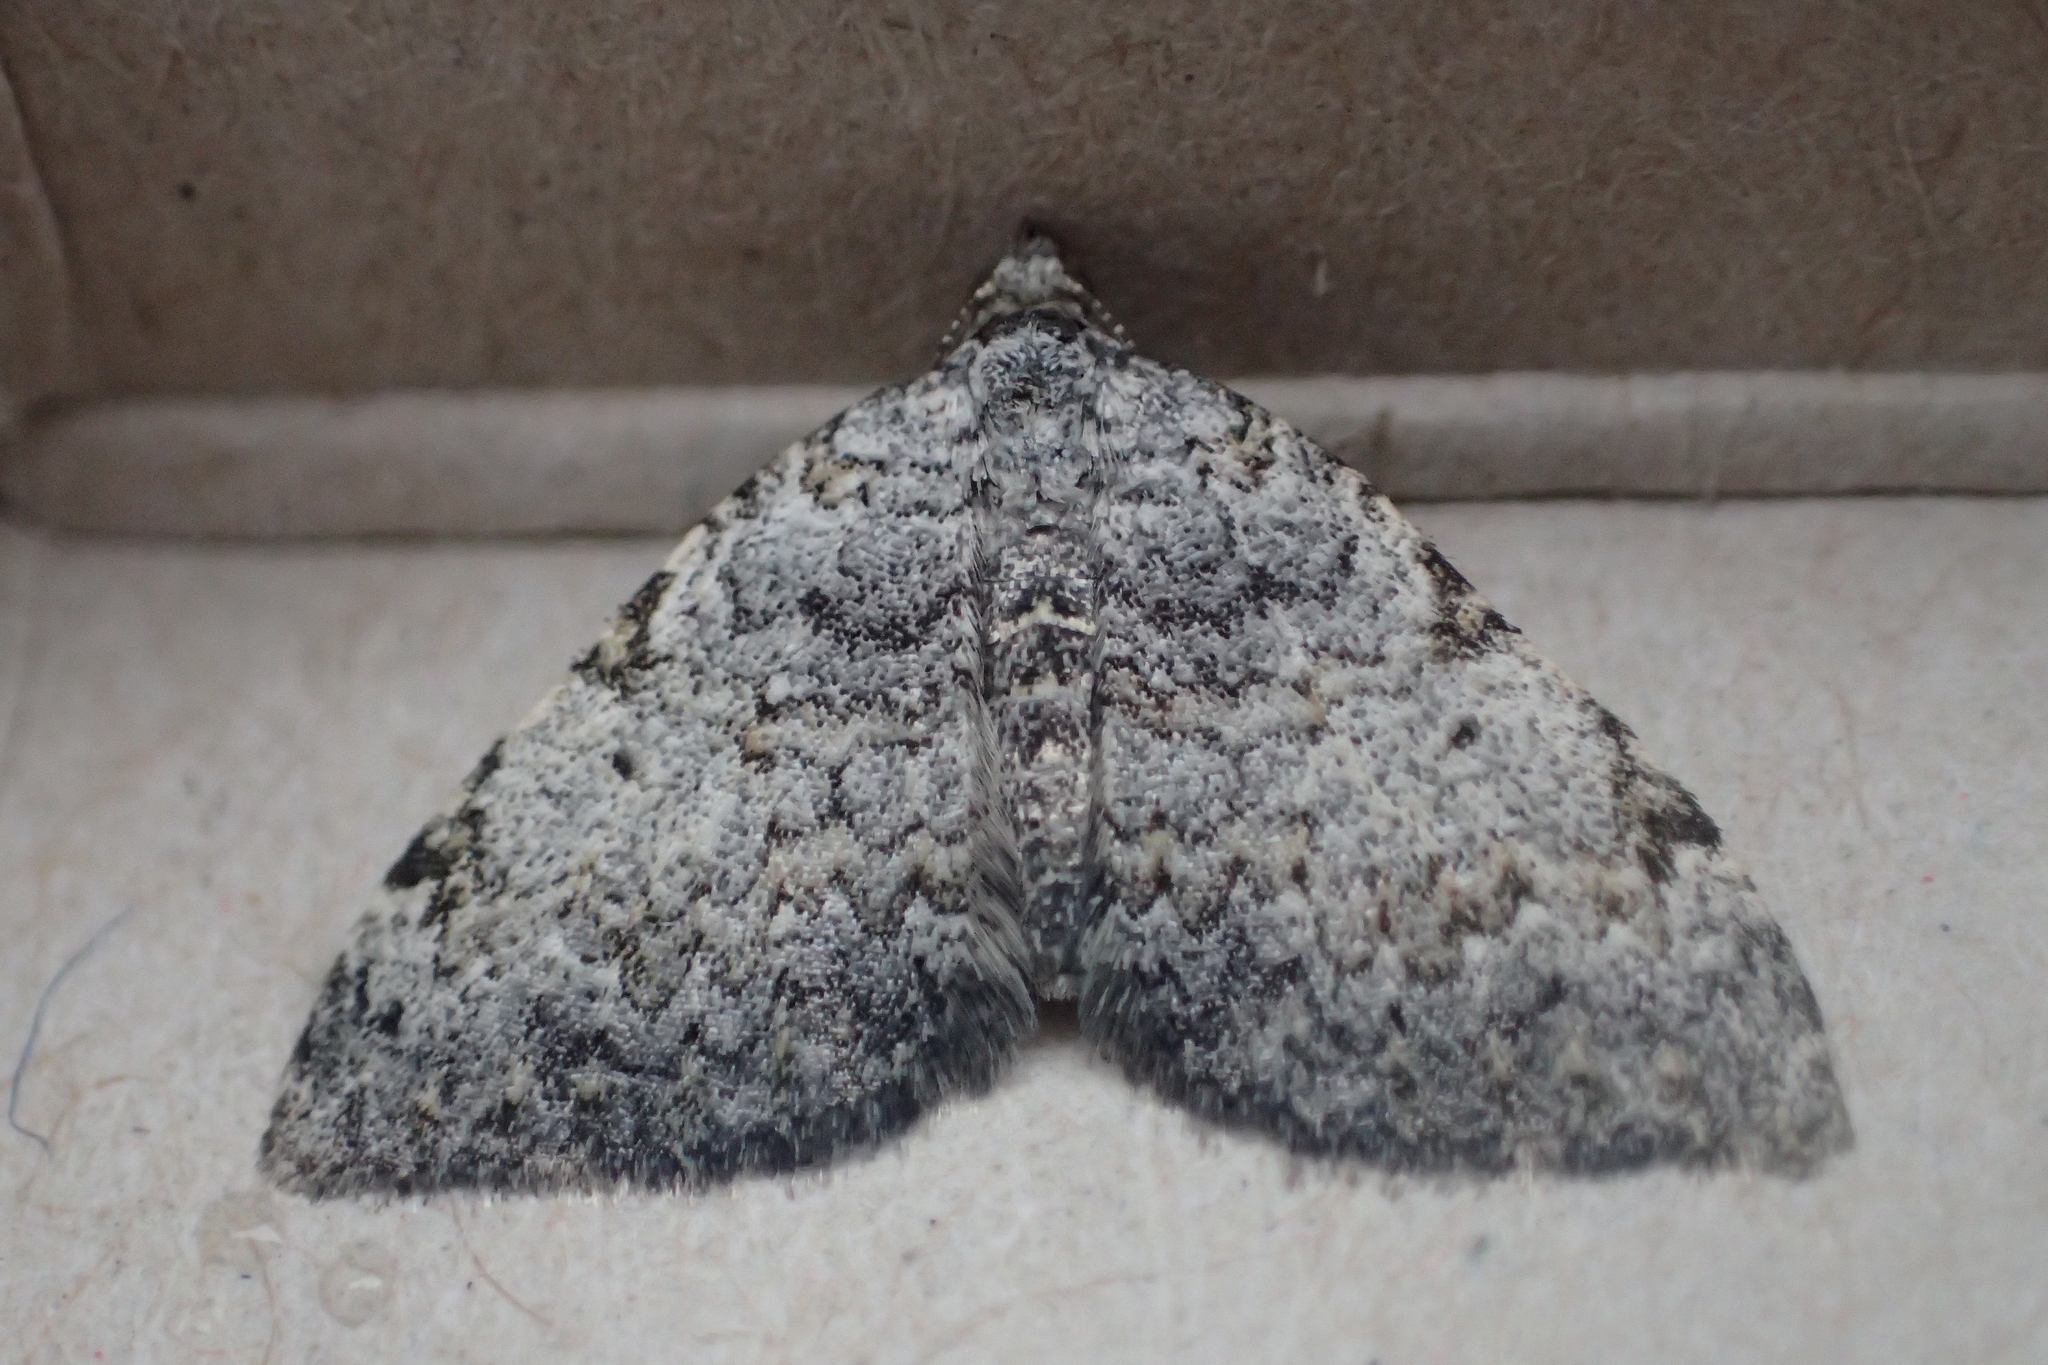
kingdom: Animalia
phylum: Arthropoda
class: Insecta
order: Lepidoptera
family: Geometridae
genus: Helastia
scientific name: Helastia mutabilis
